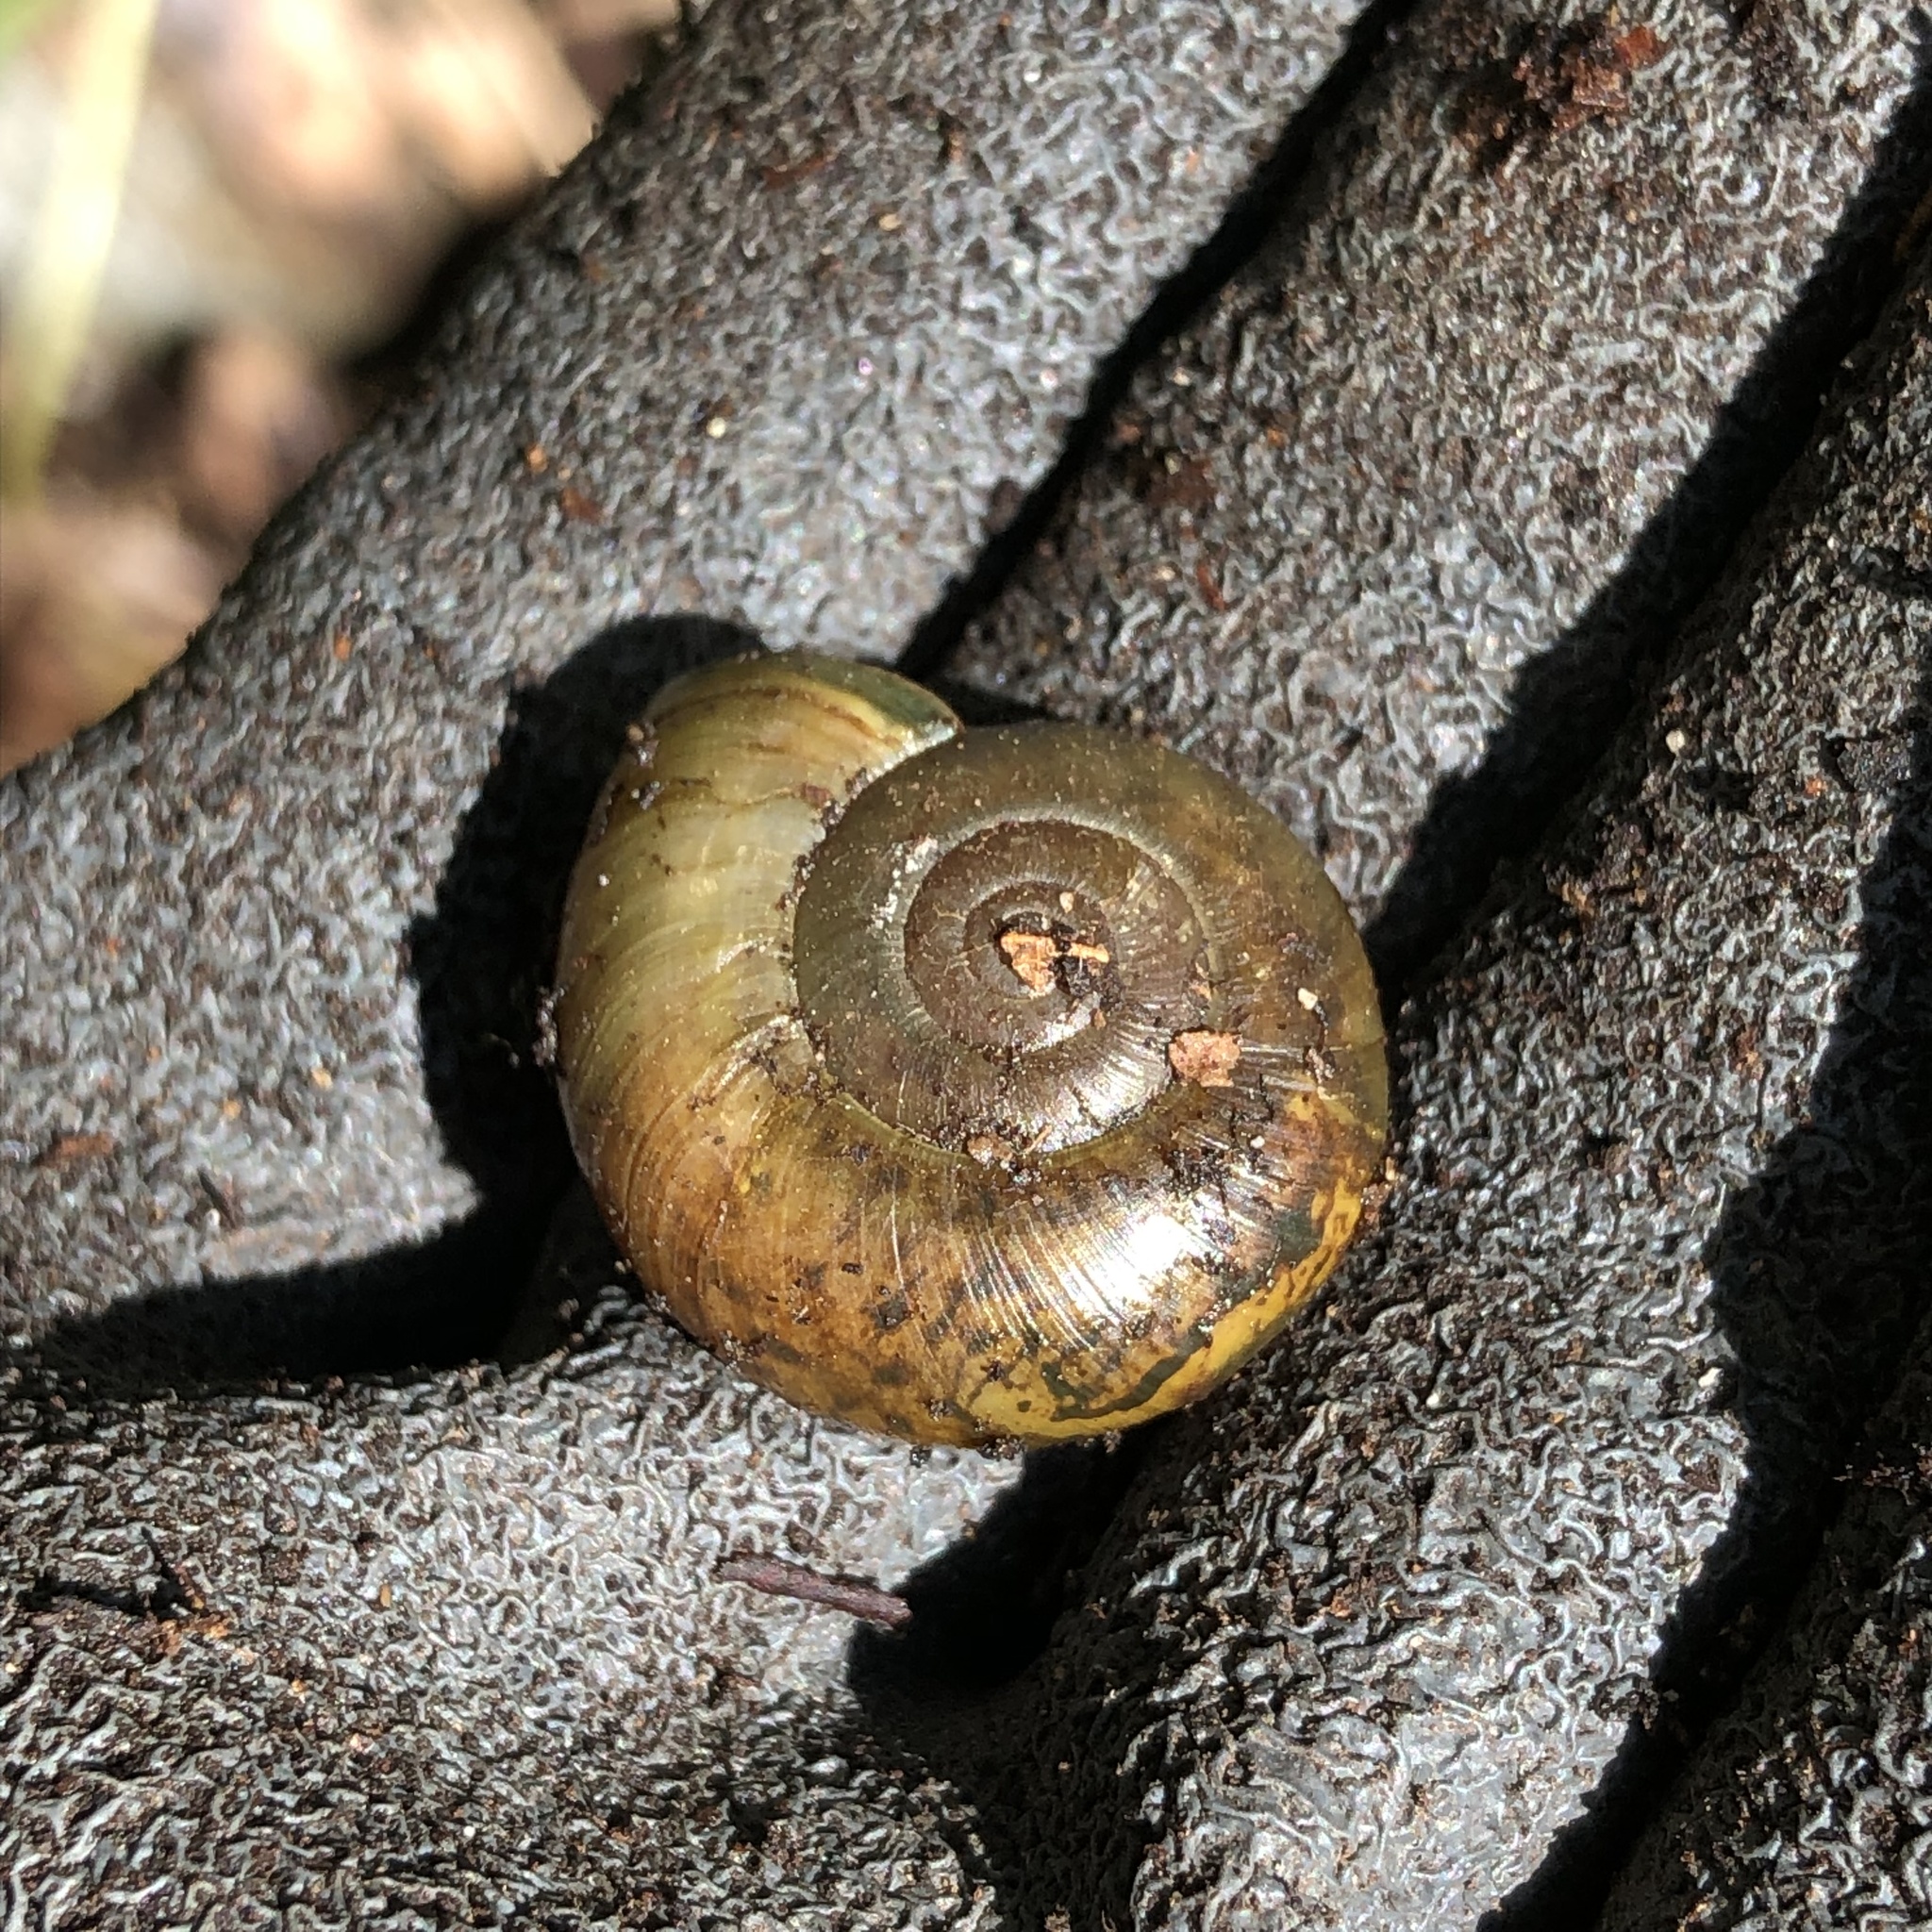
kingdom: Animalia
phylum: Mollusca
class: Gastropoda
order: Stylommatophora
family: Haplotrematidae
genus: Haplotrema
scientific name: Haplotrema vancouverense
